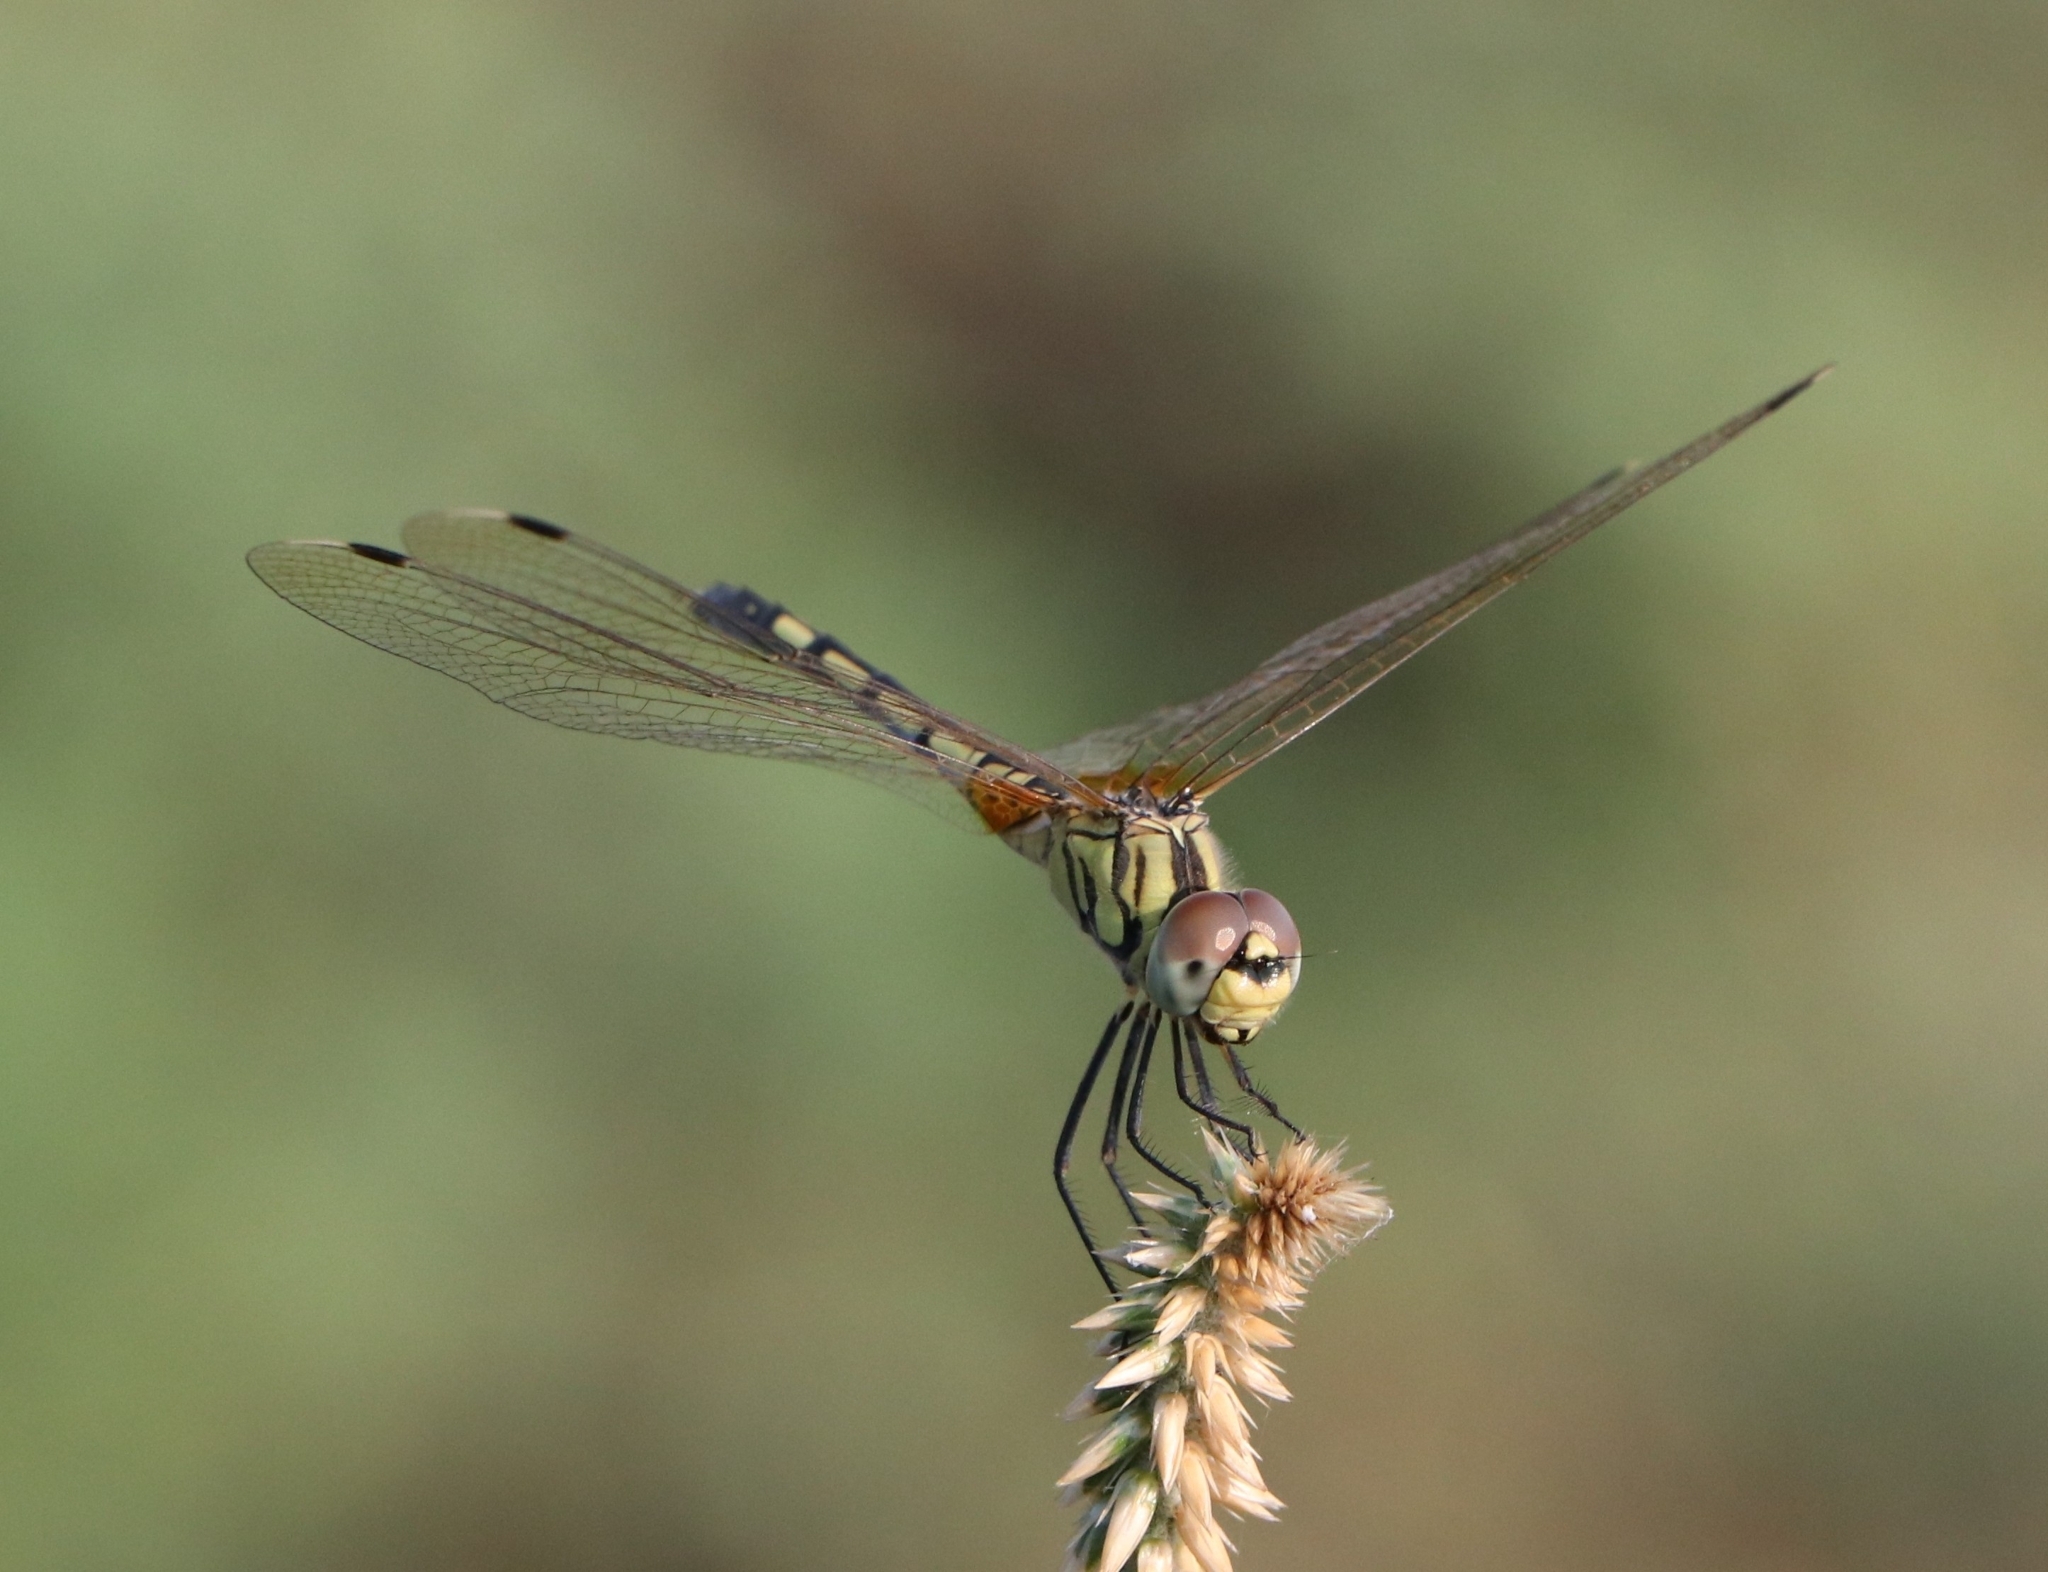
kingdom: Animalia
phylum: Arthropoda
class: Insecta
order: Odonata
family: Libellulidae
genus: Trithemis
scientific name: Trithemis pallidinervis
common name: Dancing dropwing
